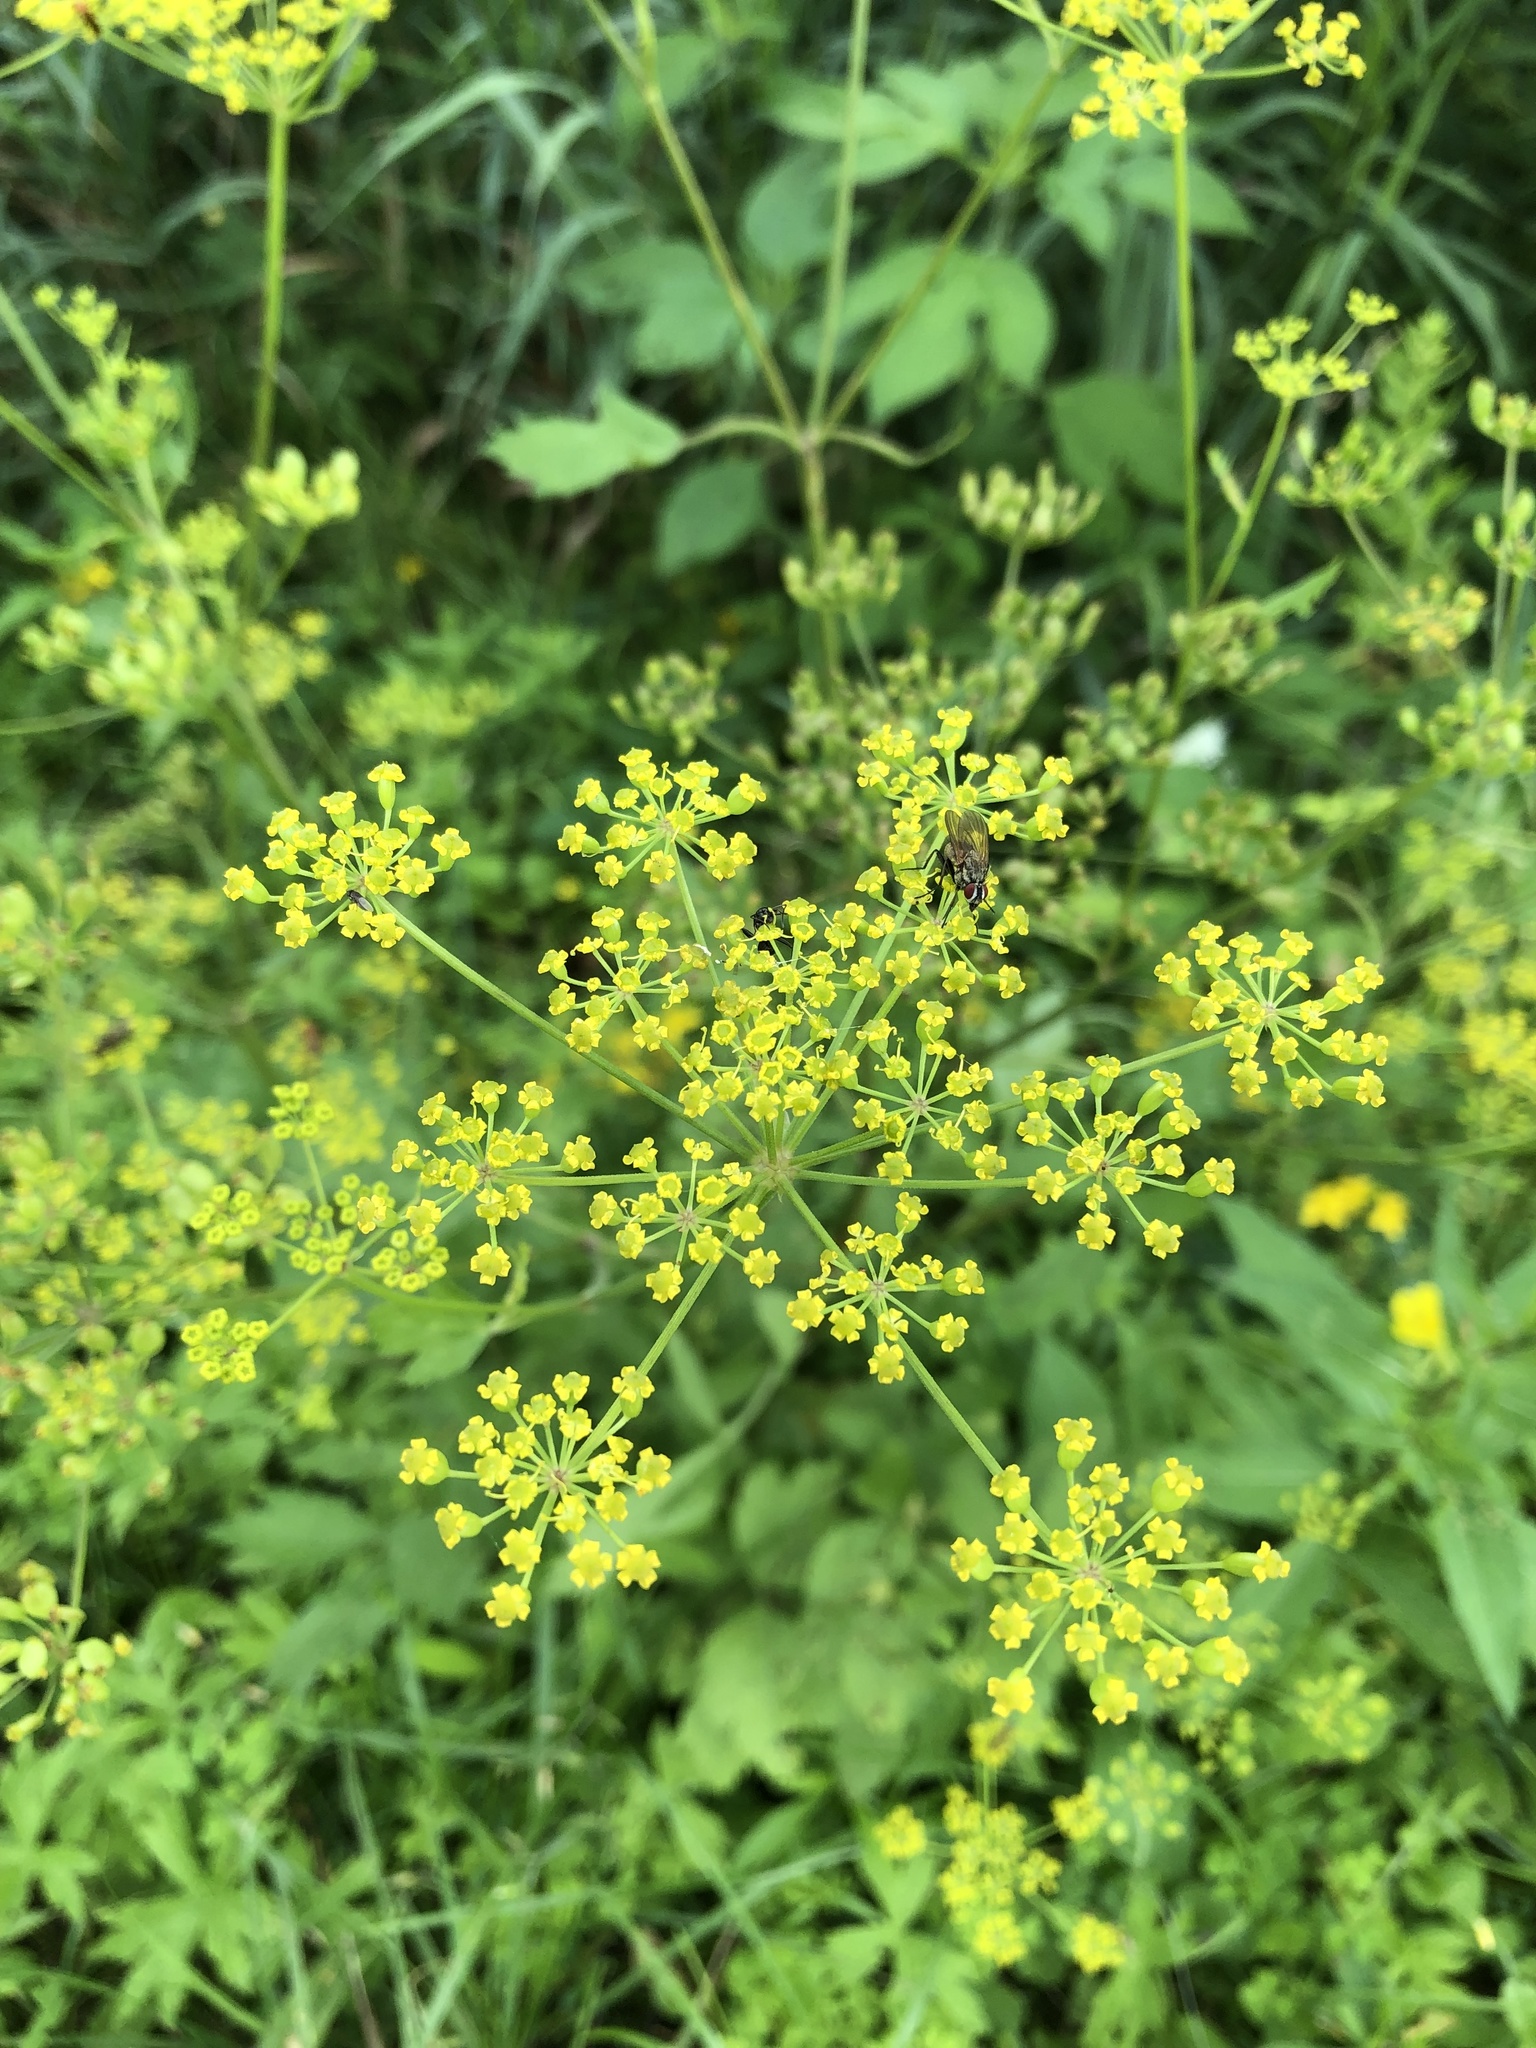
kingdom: Plantae
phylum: Tracheophyta
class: Magnoliopsida
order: Apiales
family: Apiaceae
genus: Pastinaca
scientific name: Pastinaca sativa
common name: Wild parsnip
